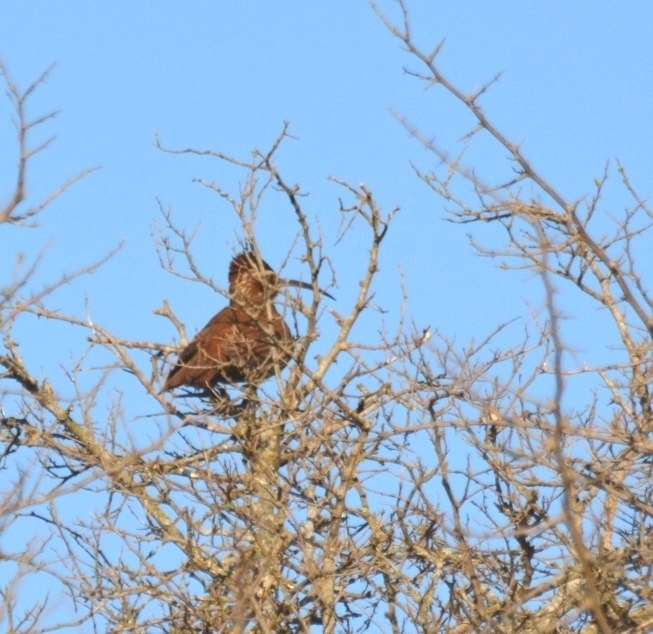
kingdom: Animalia
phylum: Chordata
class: Aves
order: Passeriformes
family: Furnariidae
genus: Drymornis
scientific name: Drymornis bridgesii
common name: Scimitar-billed woodcreeper
